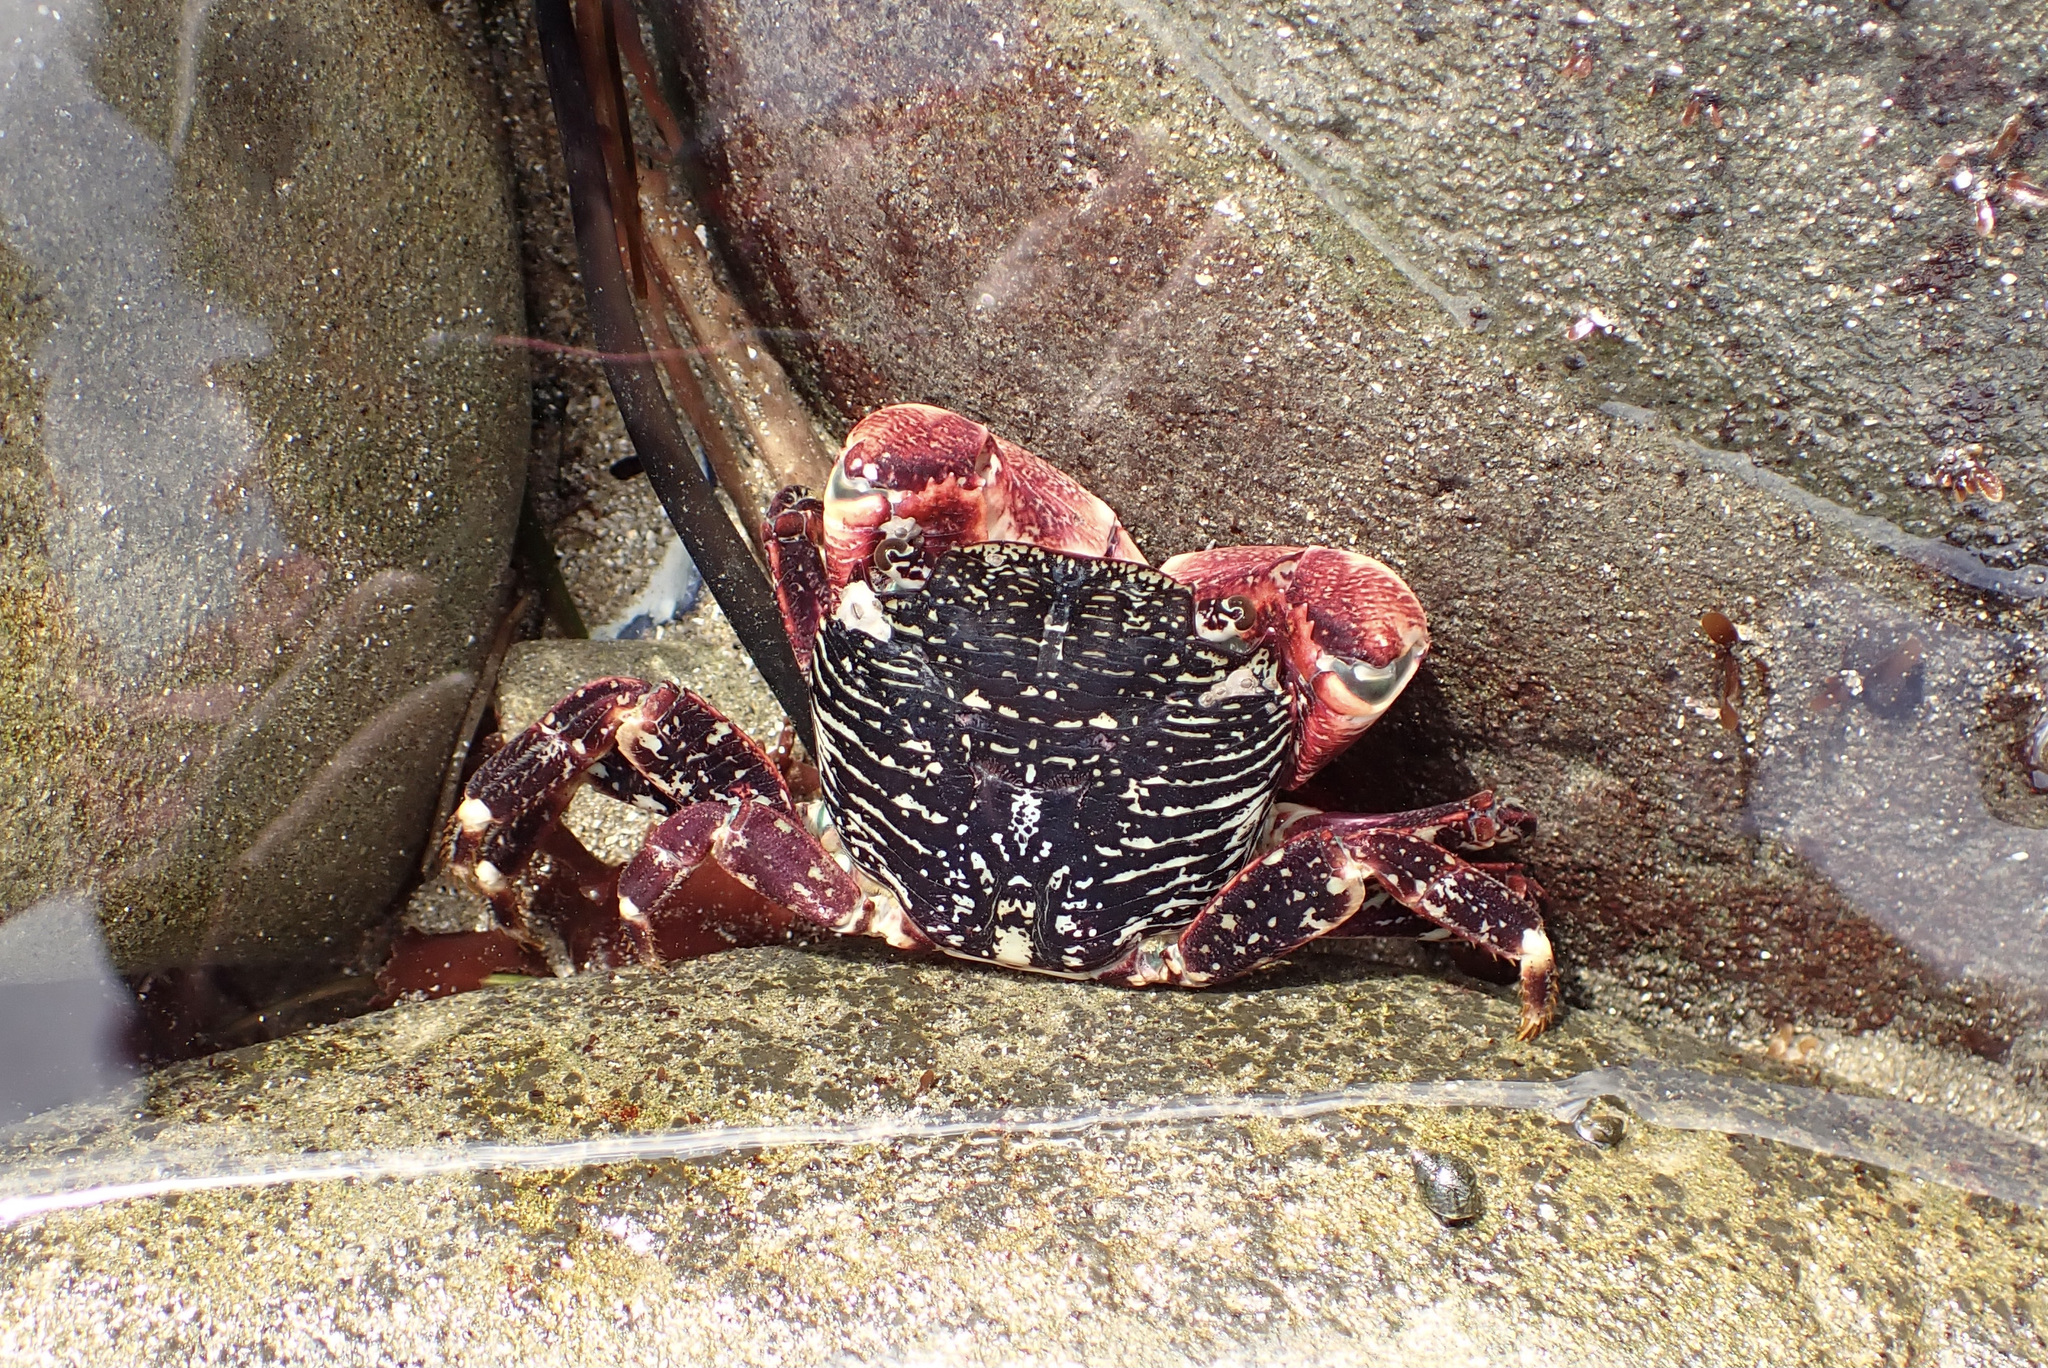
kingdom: Animalia
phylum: Arthropoda
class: Malacostraca
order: Decapoda
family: Grapsidae
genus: Pachygrapsus
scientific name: Pachygrapsus crassipes
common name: Striped shore crab
